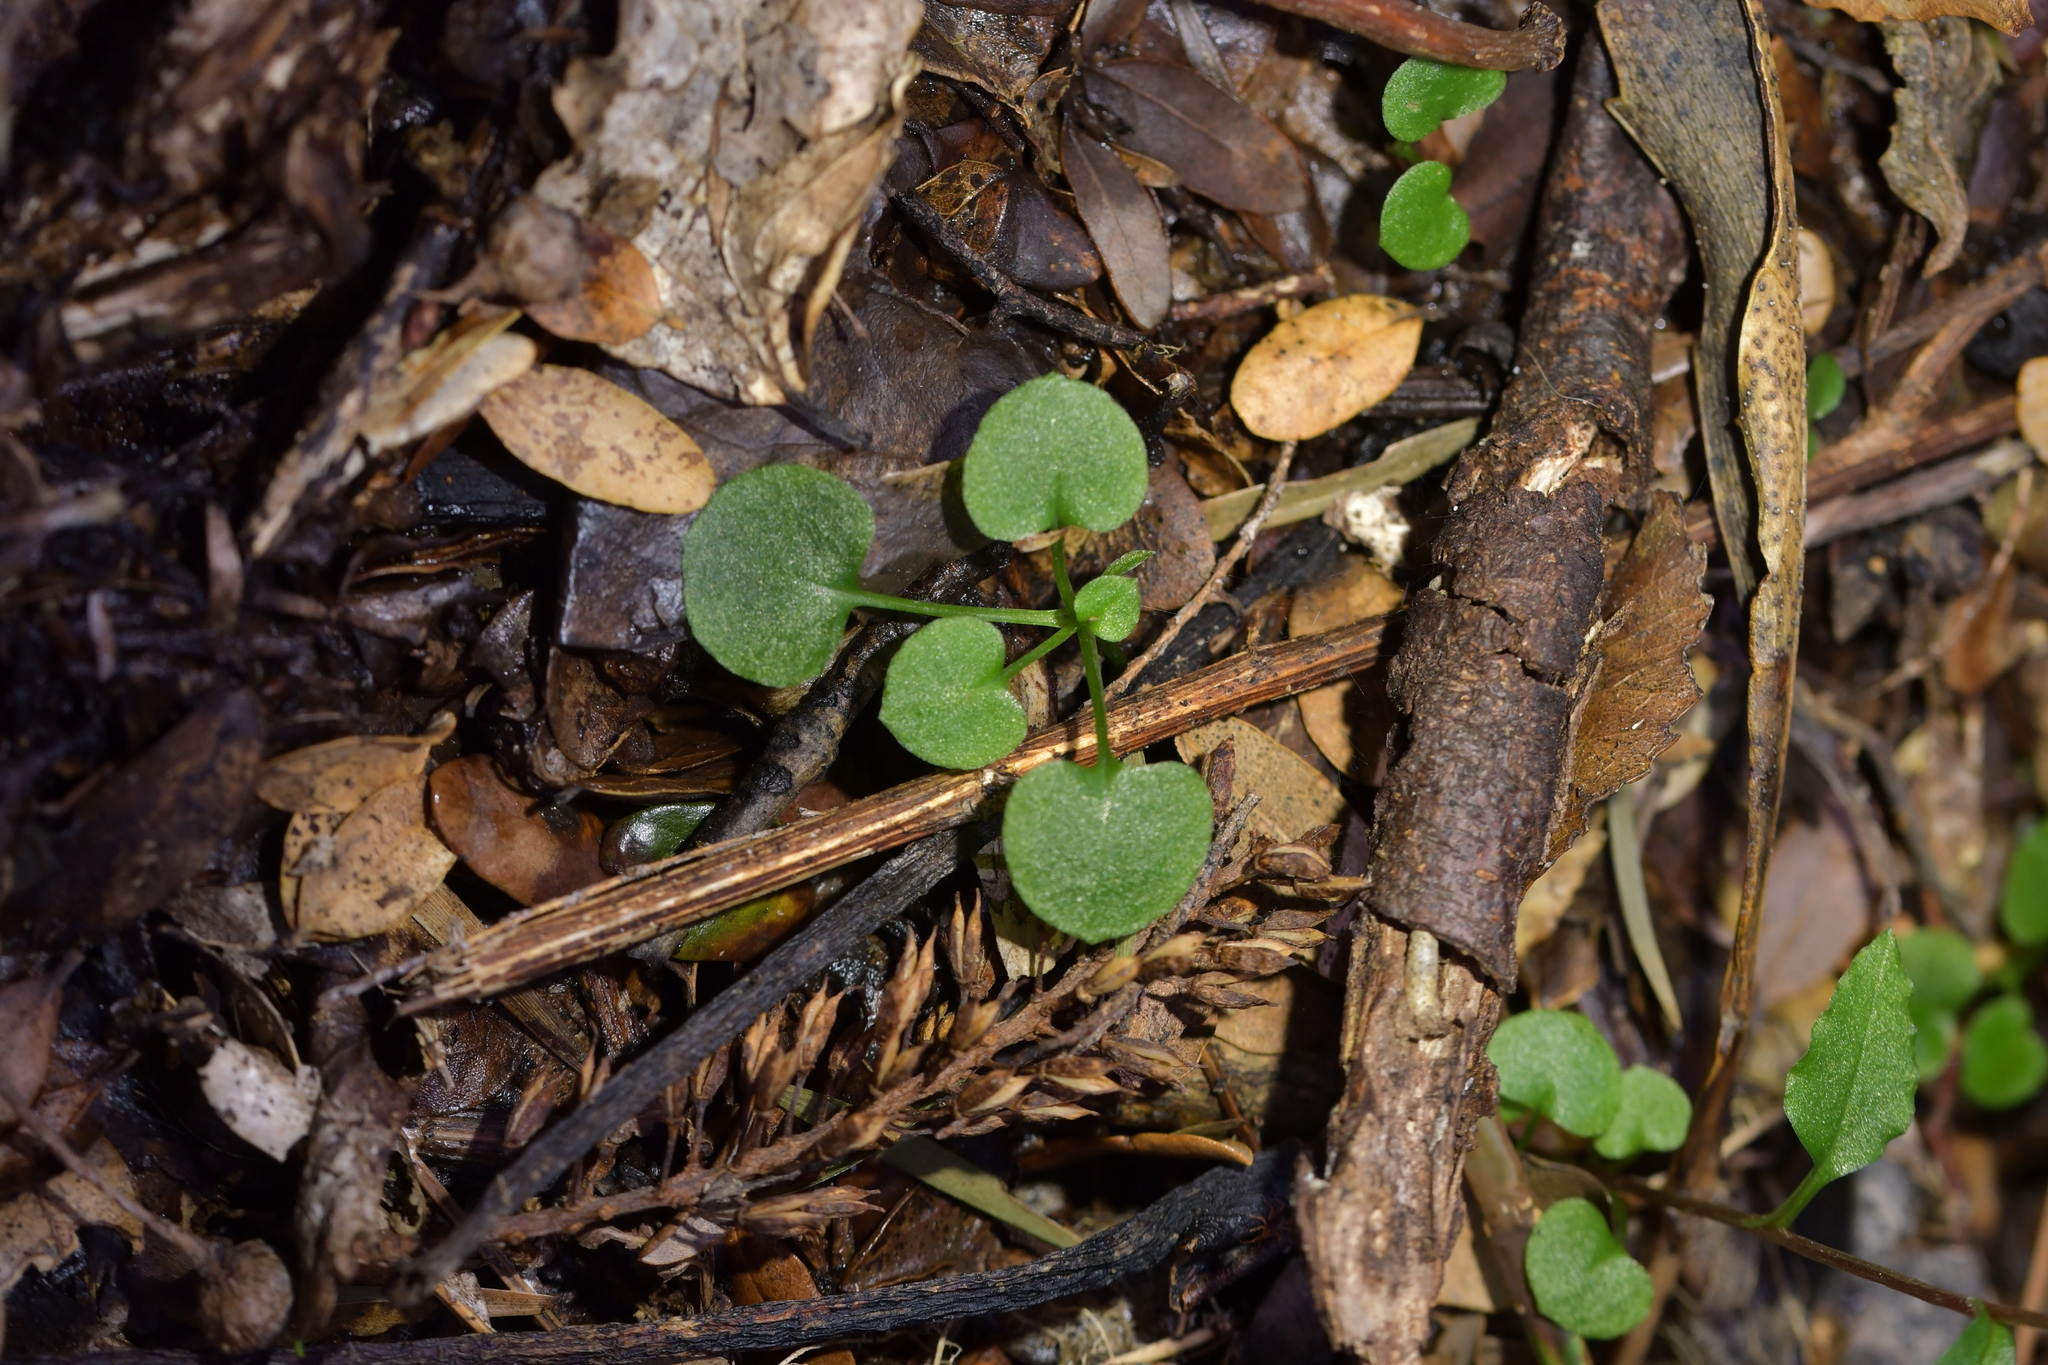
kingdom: Plantae
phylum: Tracheophyta
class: Liliopsida
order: Asparagales
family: Orchidaceae
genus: Pterostylis
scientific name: Pterostylis alobula
